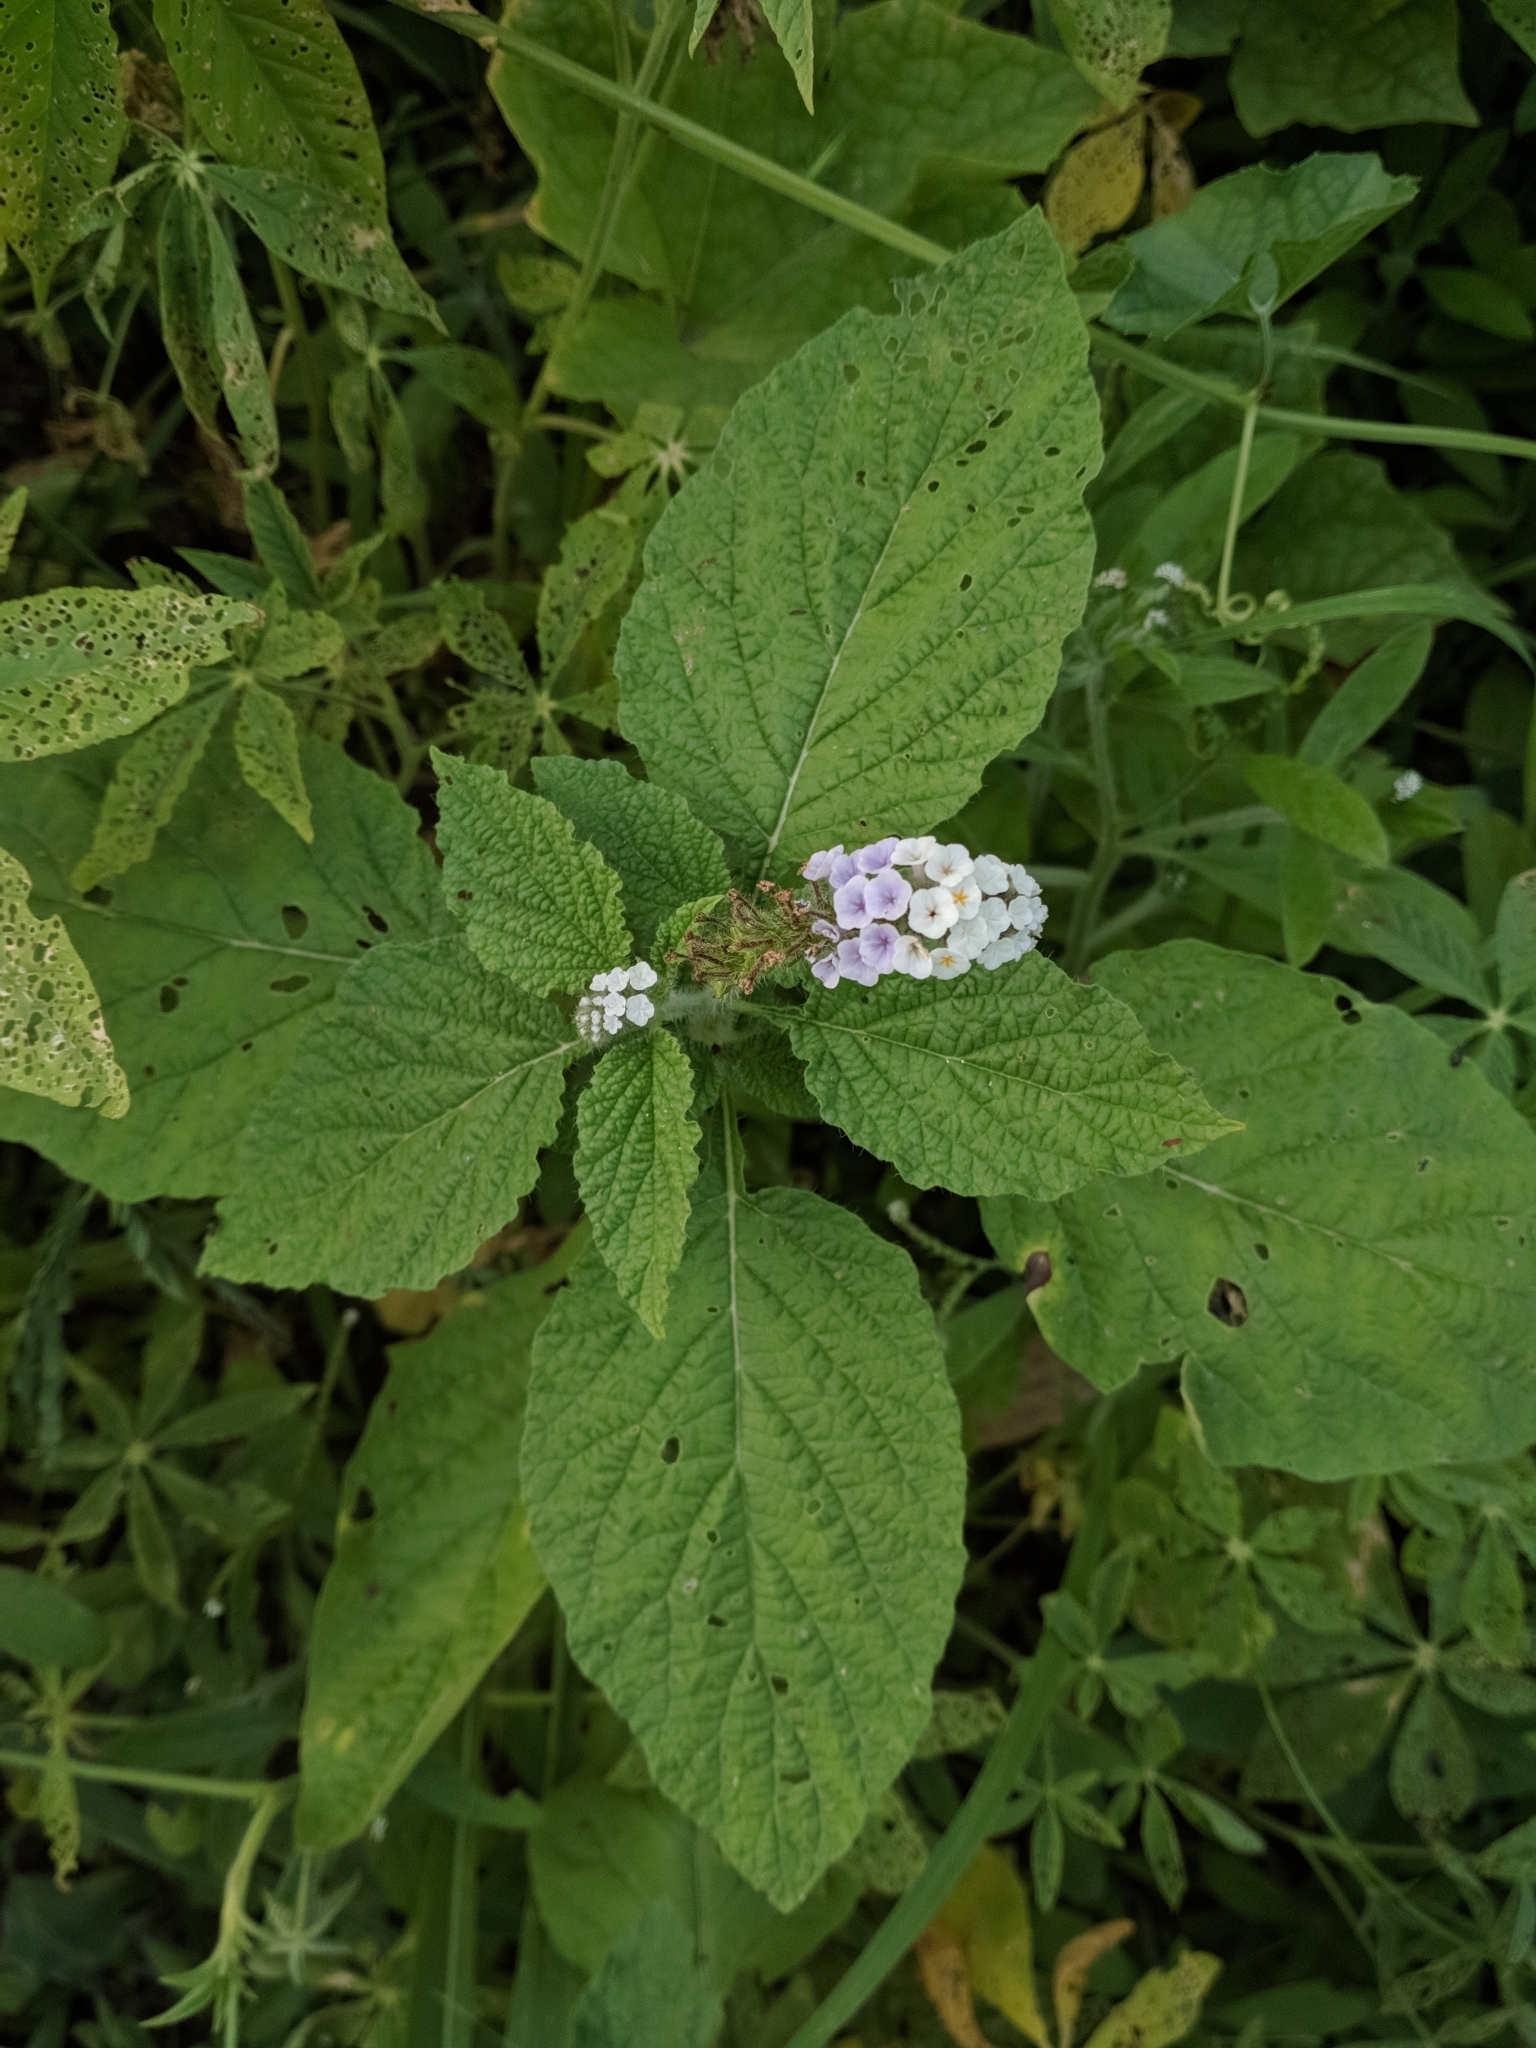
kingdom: Plantae
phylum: Tracheophyta
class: Magnoliopsida
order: Boraginales
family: Heliotropiaceae
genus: Heliotropium
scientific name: Heliotropium elongatum
